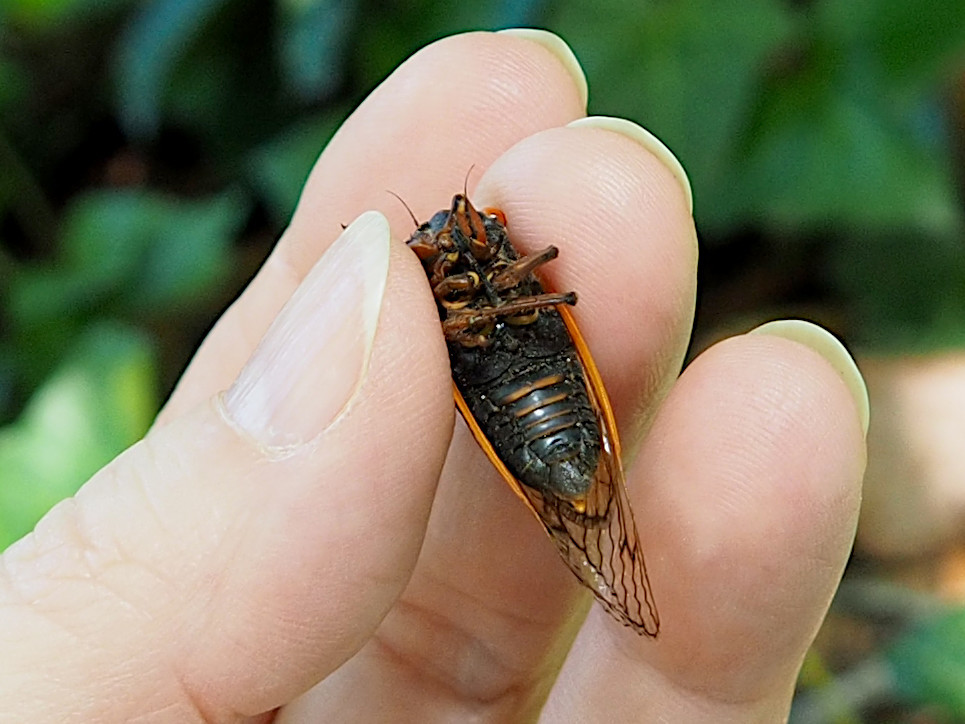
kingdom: Animalia
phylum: Arthropoda
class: Insecta
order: Hemiptera
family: Cicadidae
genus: Magicicada
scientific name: Magicicada septendecula
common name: Decula periodical cicada
